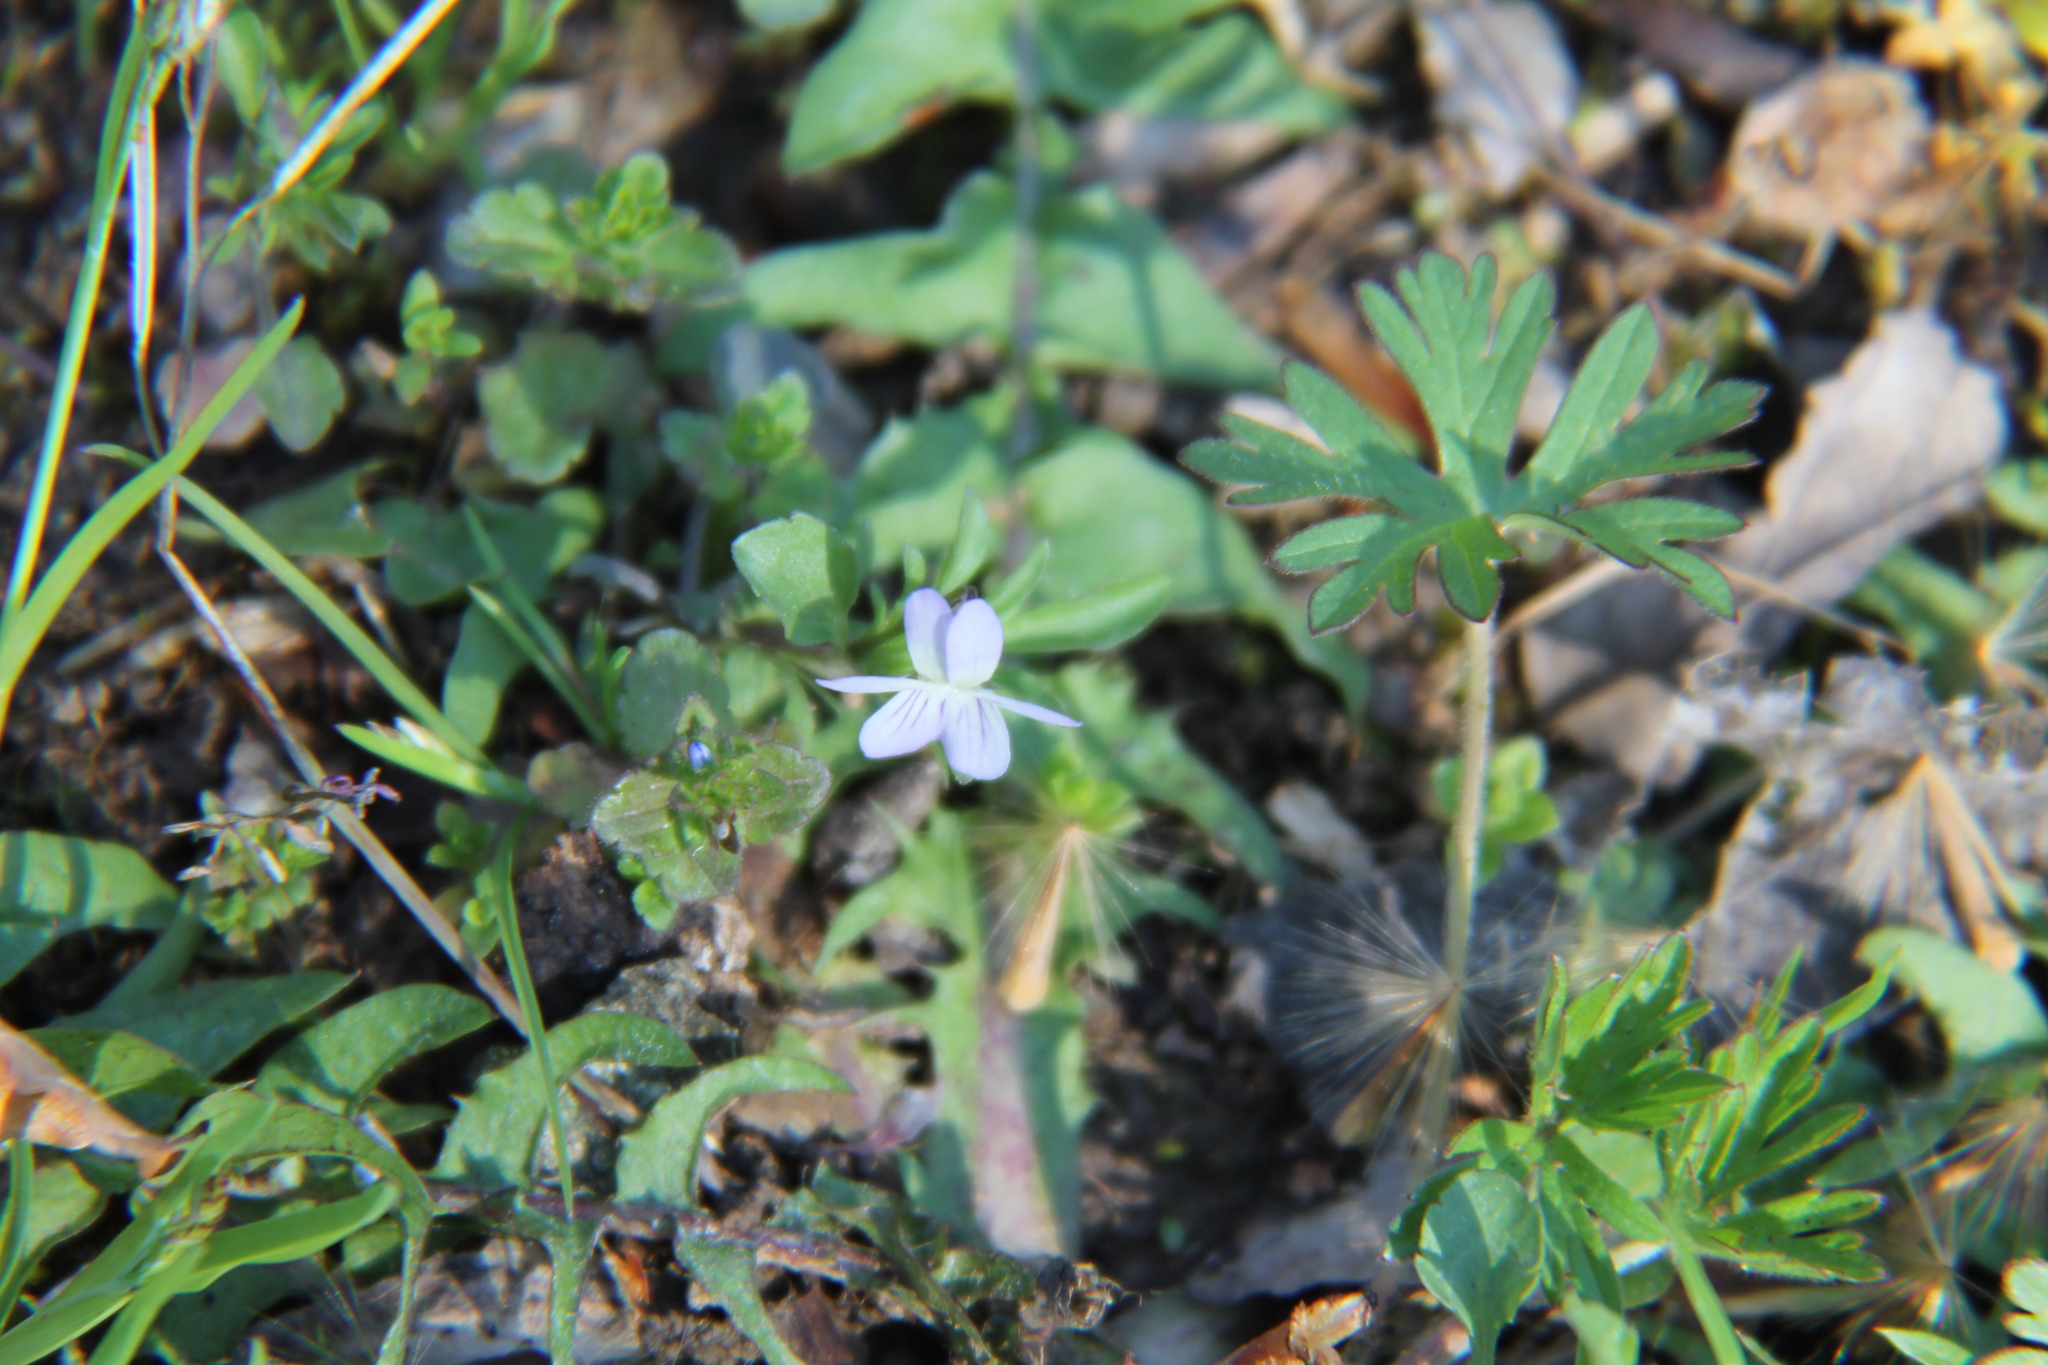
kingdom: Plantae
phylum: Tracheophyta
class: Magnoliopsida
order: Malpighiales
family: Violaceae
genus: Viola
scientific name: Viola rafinesquei
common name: American field pansy
